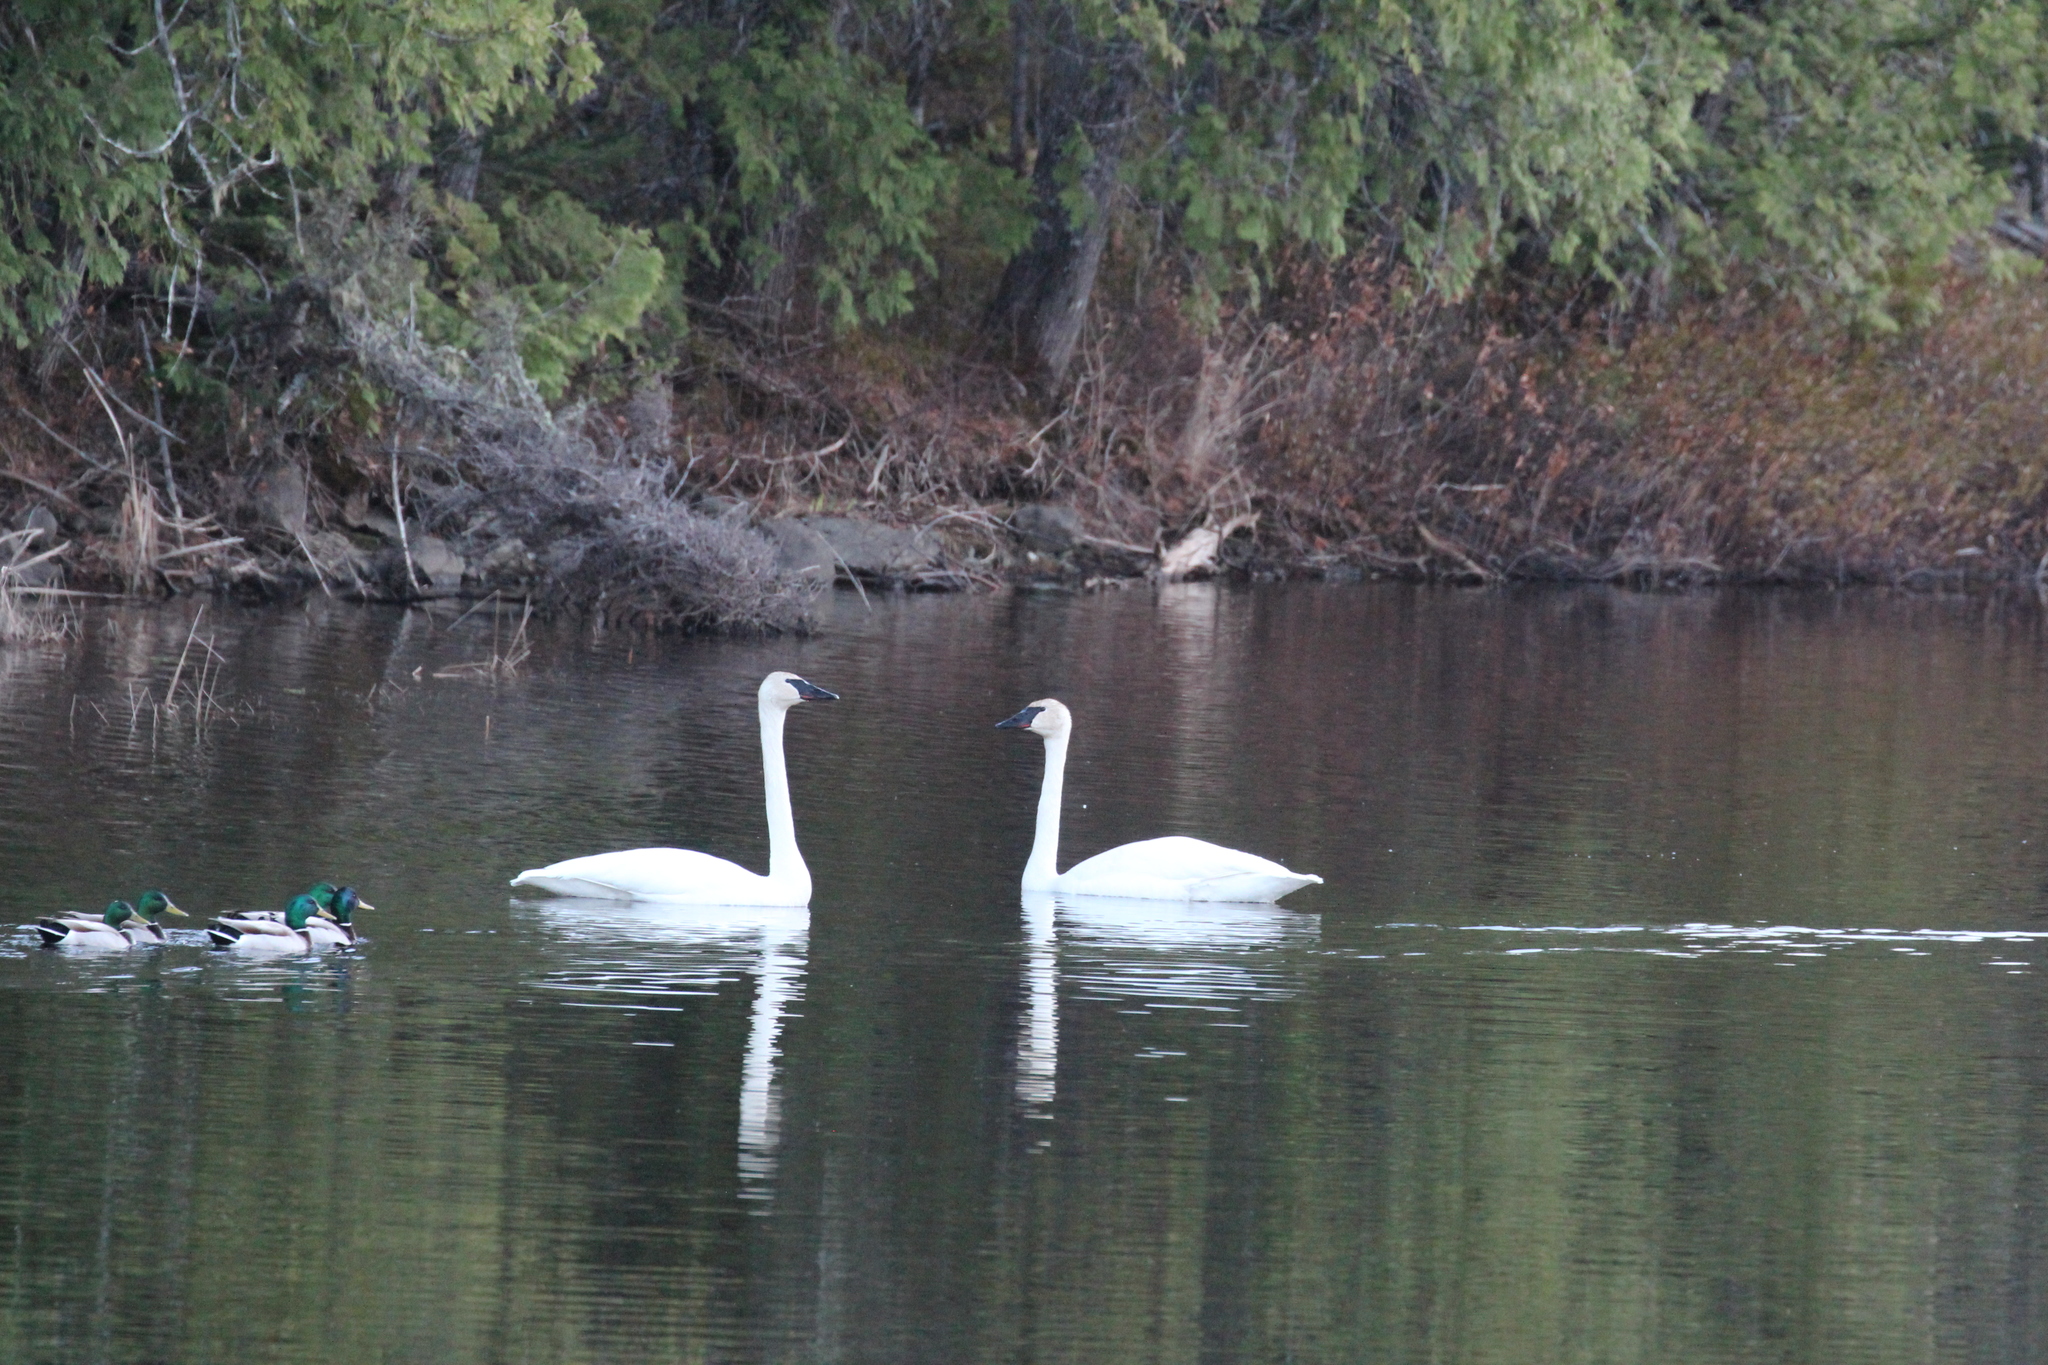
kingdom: Animalia
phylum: Chordata
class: Aves
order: Anseriformes
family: Anatidae
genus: Cygnus
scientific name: Cygnus buccinator
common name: Trumpeter swan
